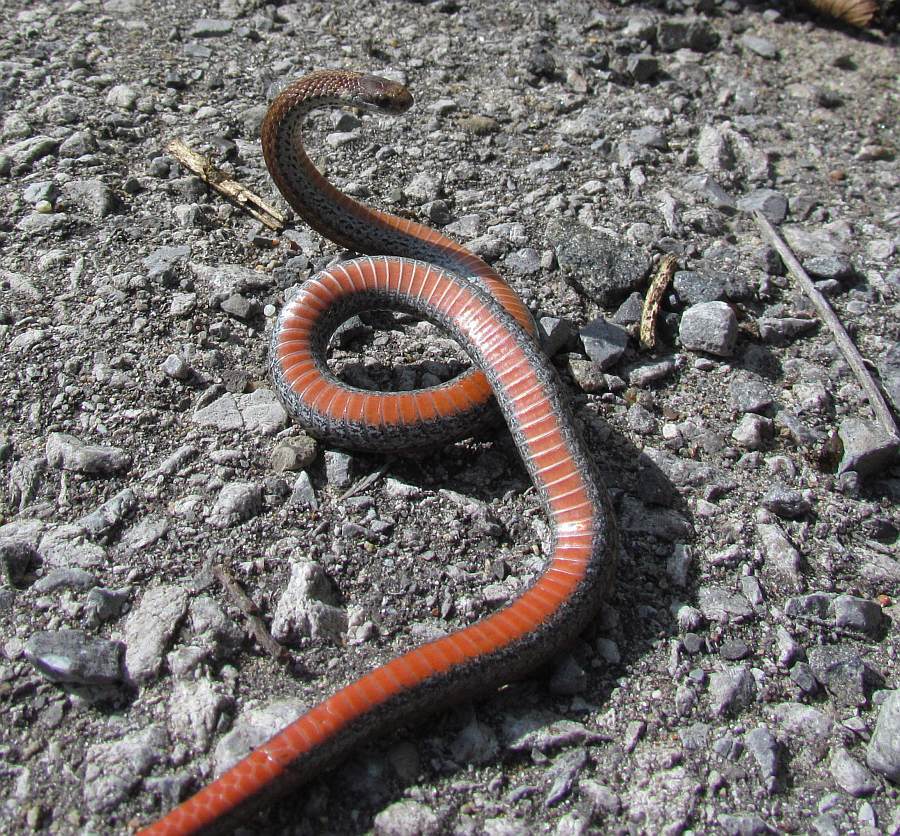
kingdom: Animalia
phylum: Chordata
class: Squamata
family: Colubridae
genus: Storeria
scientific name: Storeria occipitomaculata
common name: Redbelly snake
